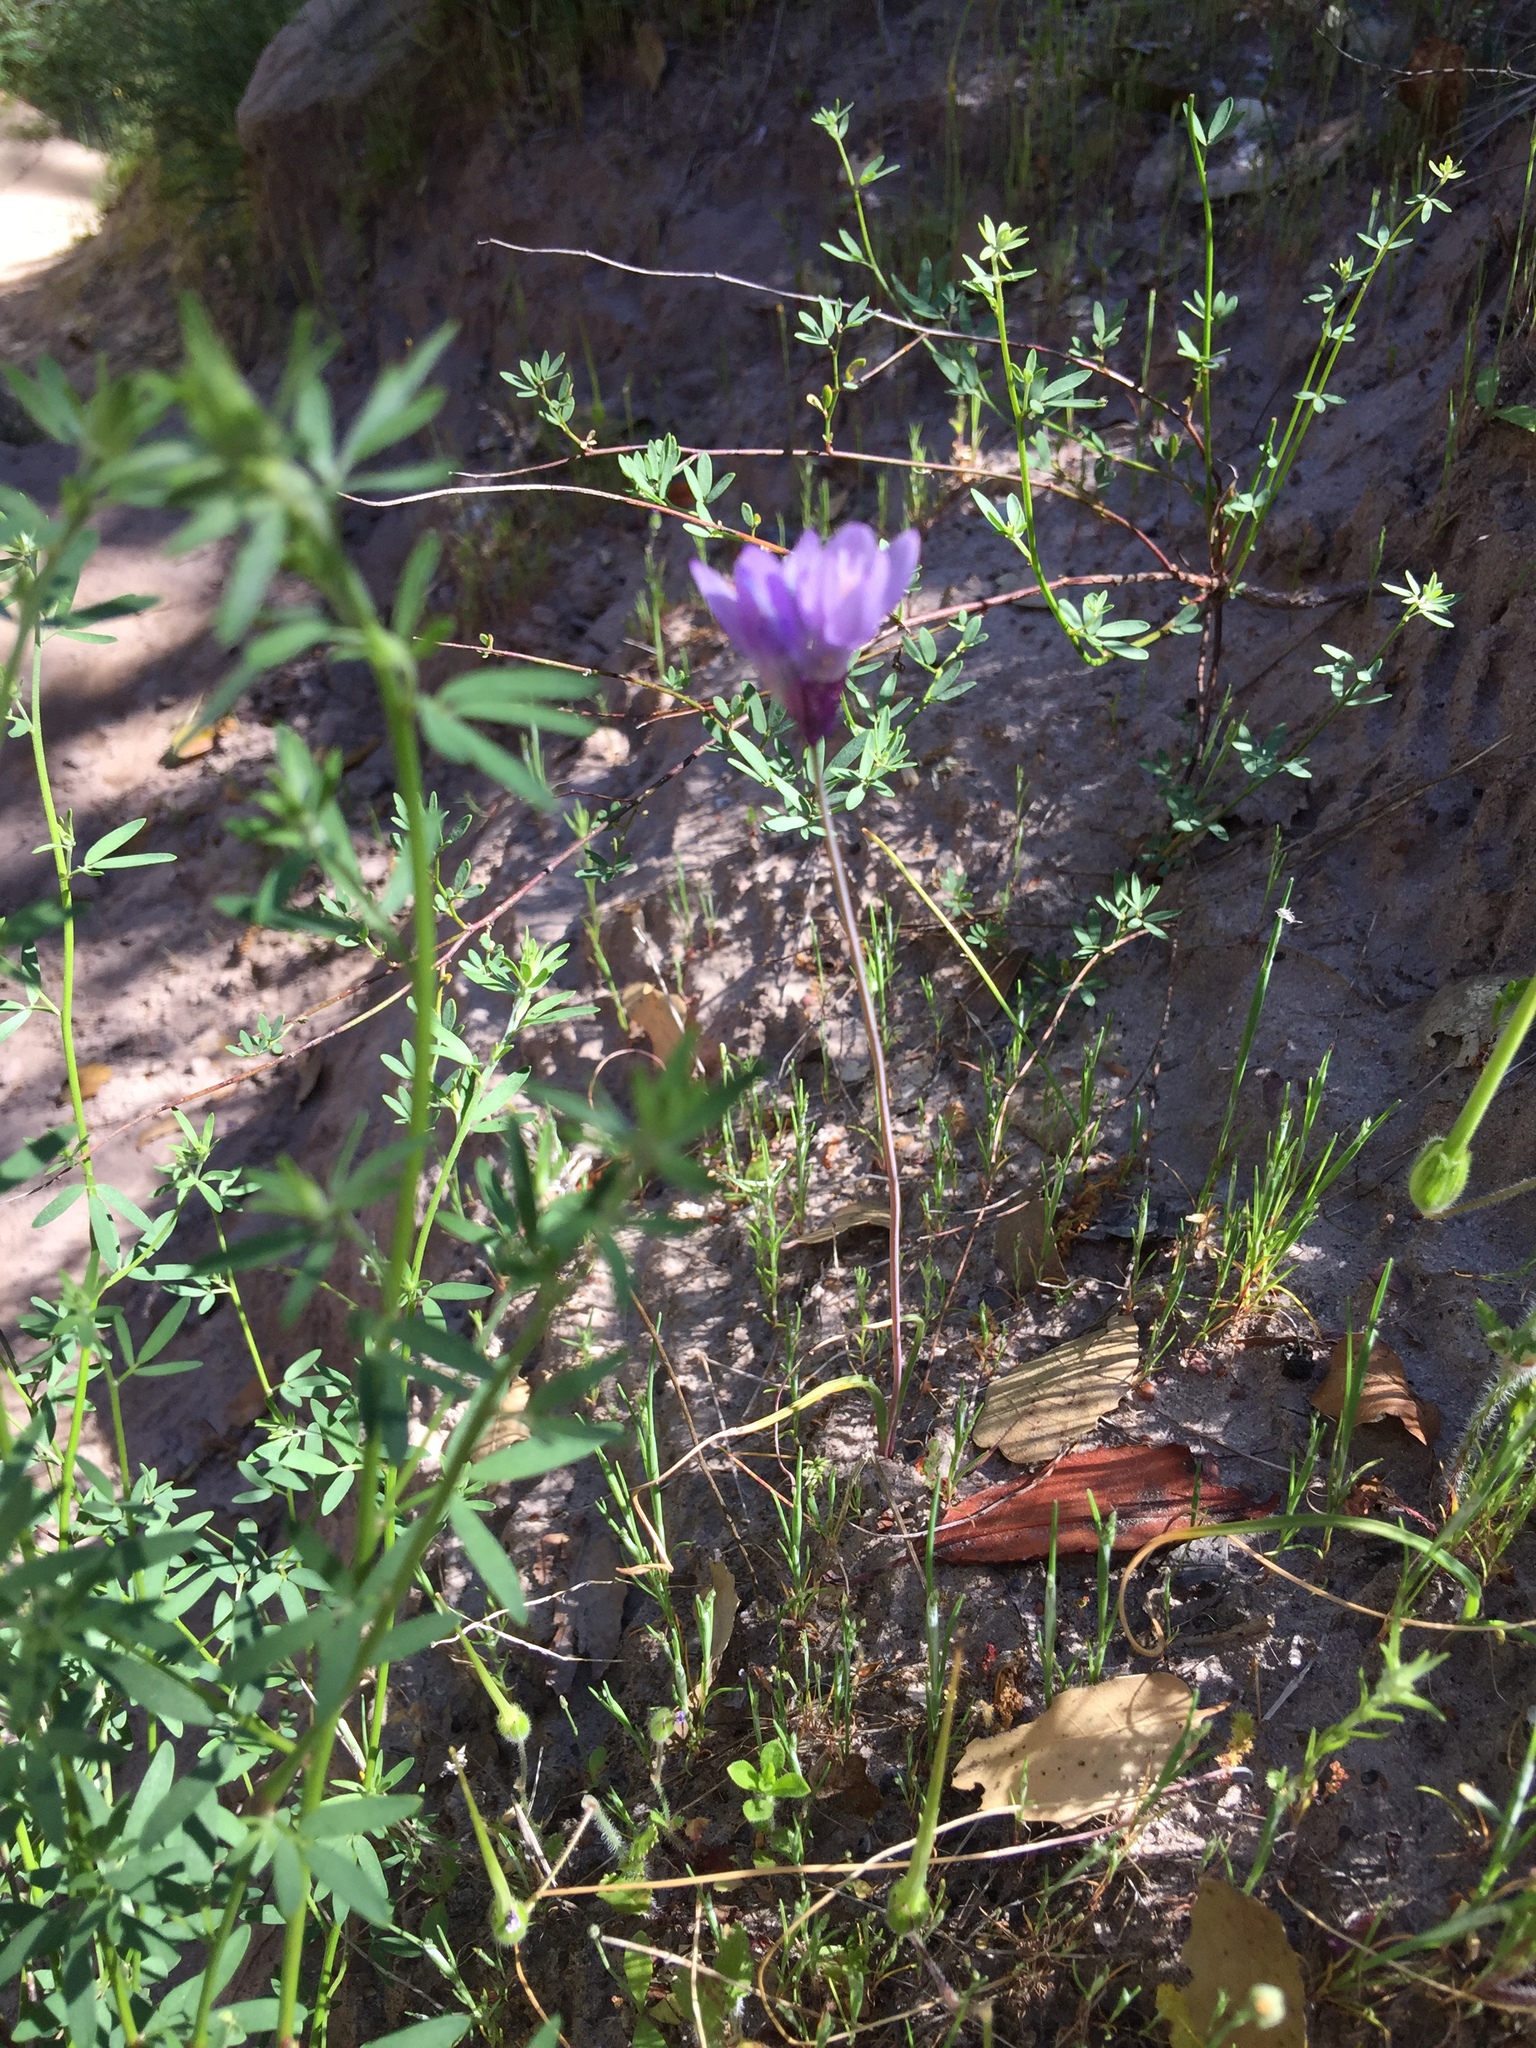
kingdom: Plantae
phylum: Tracheophyta
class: Liliopsida
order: Asparagales
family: Asparagaceae
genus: Dipterostemon
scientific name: Dipterostemon capitatus
